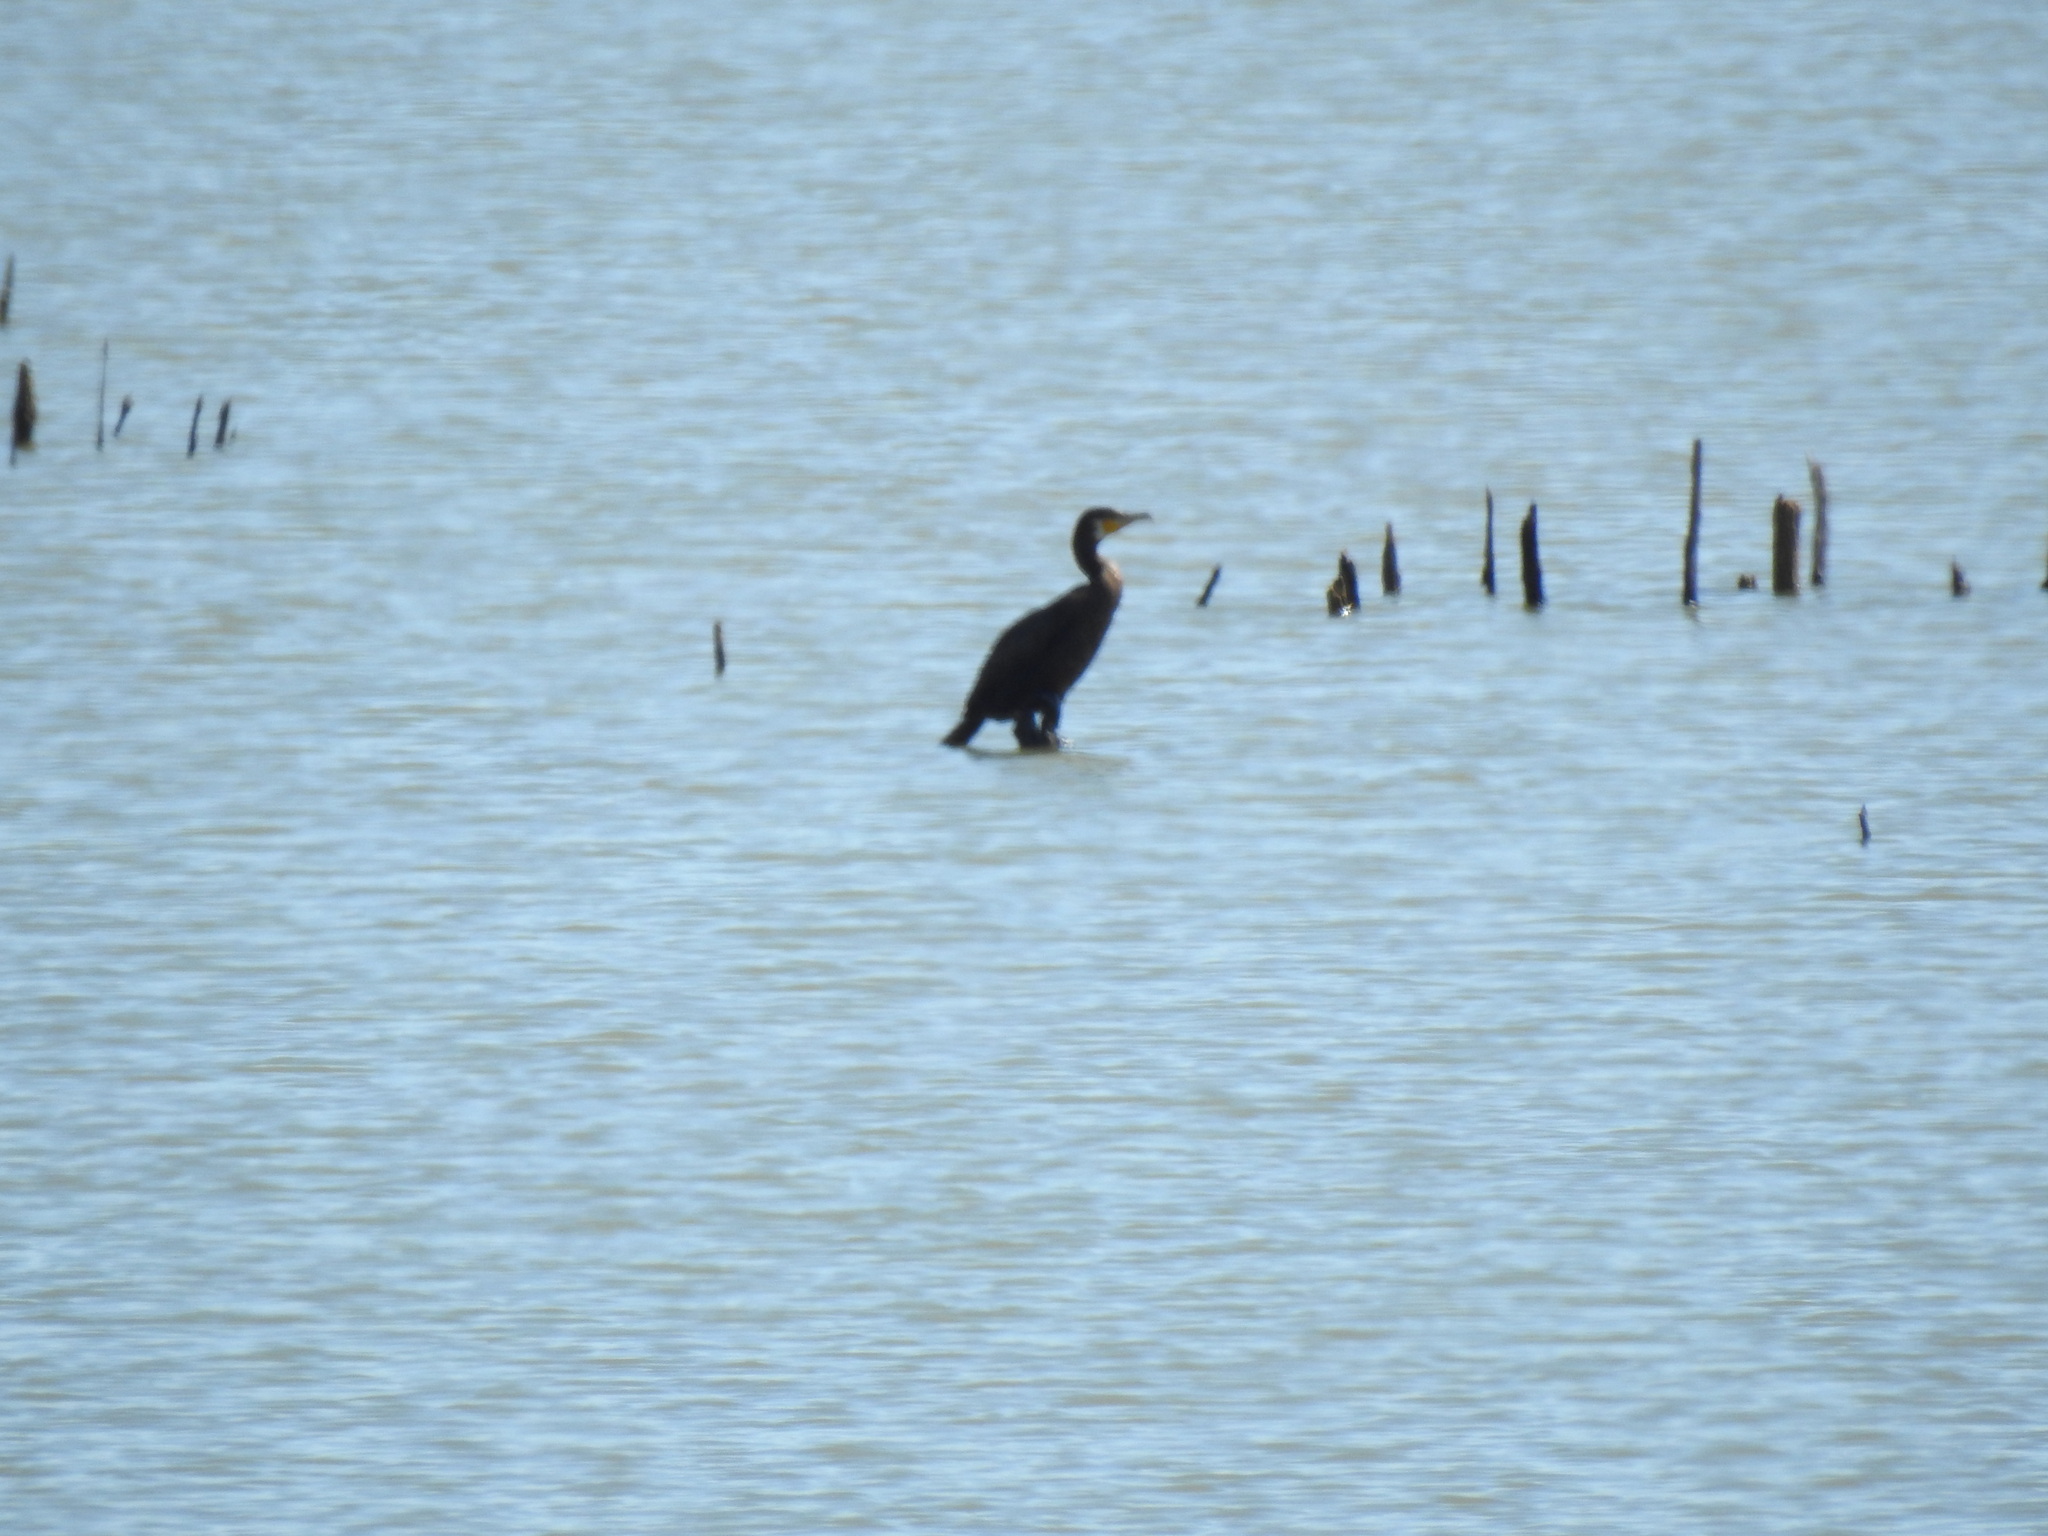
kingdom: Animalia
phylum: Chordata
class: Aves
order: Suliformes
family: Phalacrocoracidae
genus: Phalacrocorax
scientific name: Phalacrocorax carbo
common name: Great cormorant
